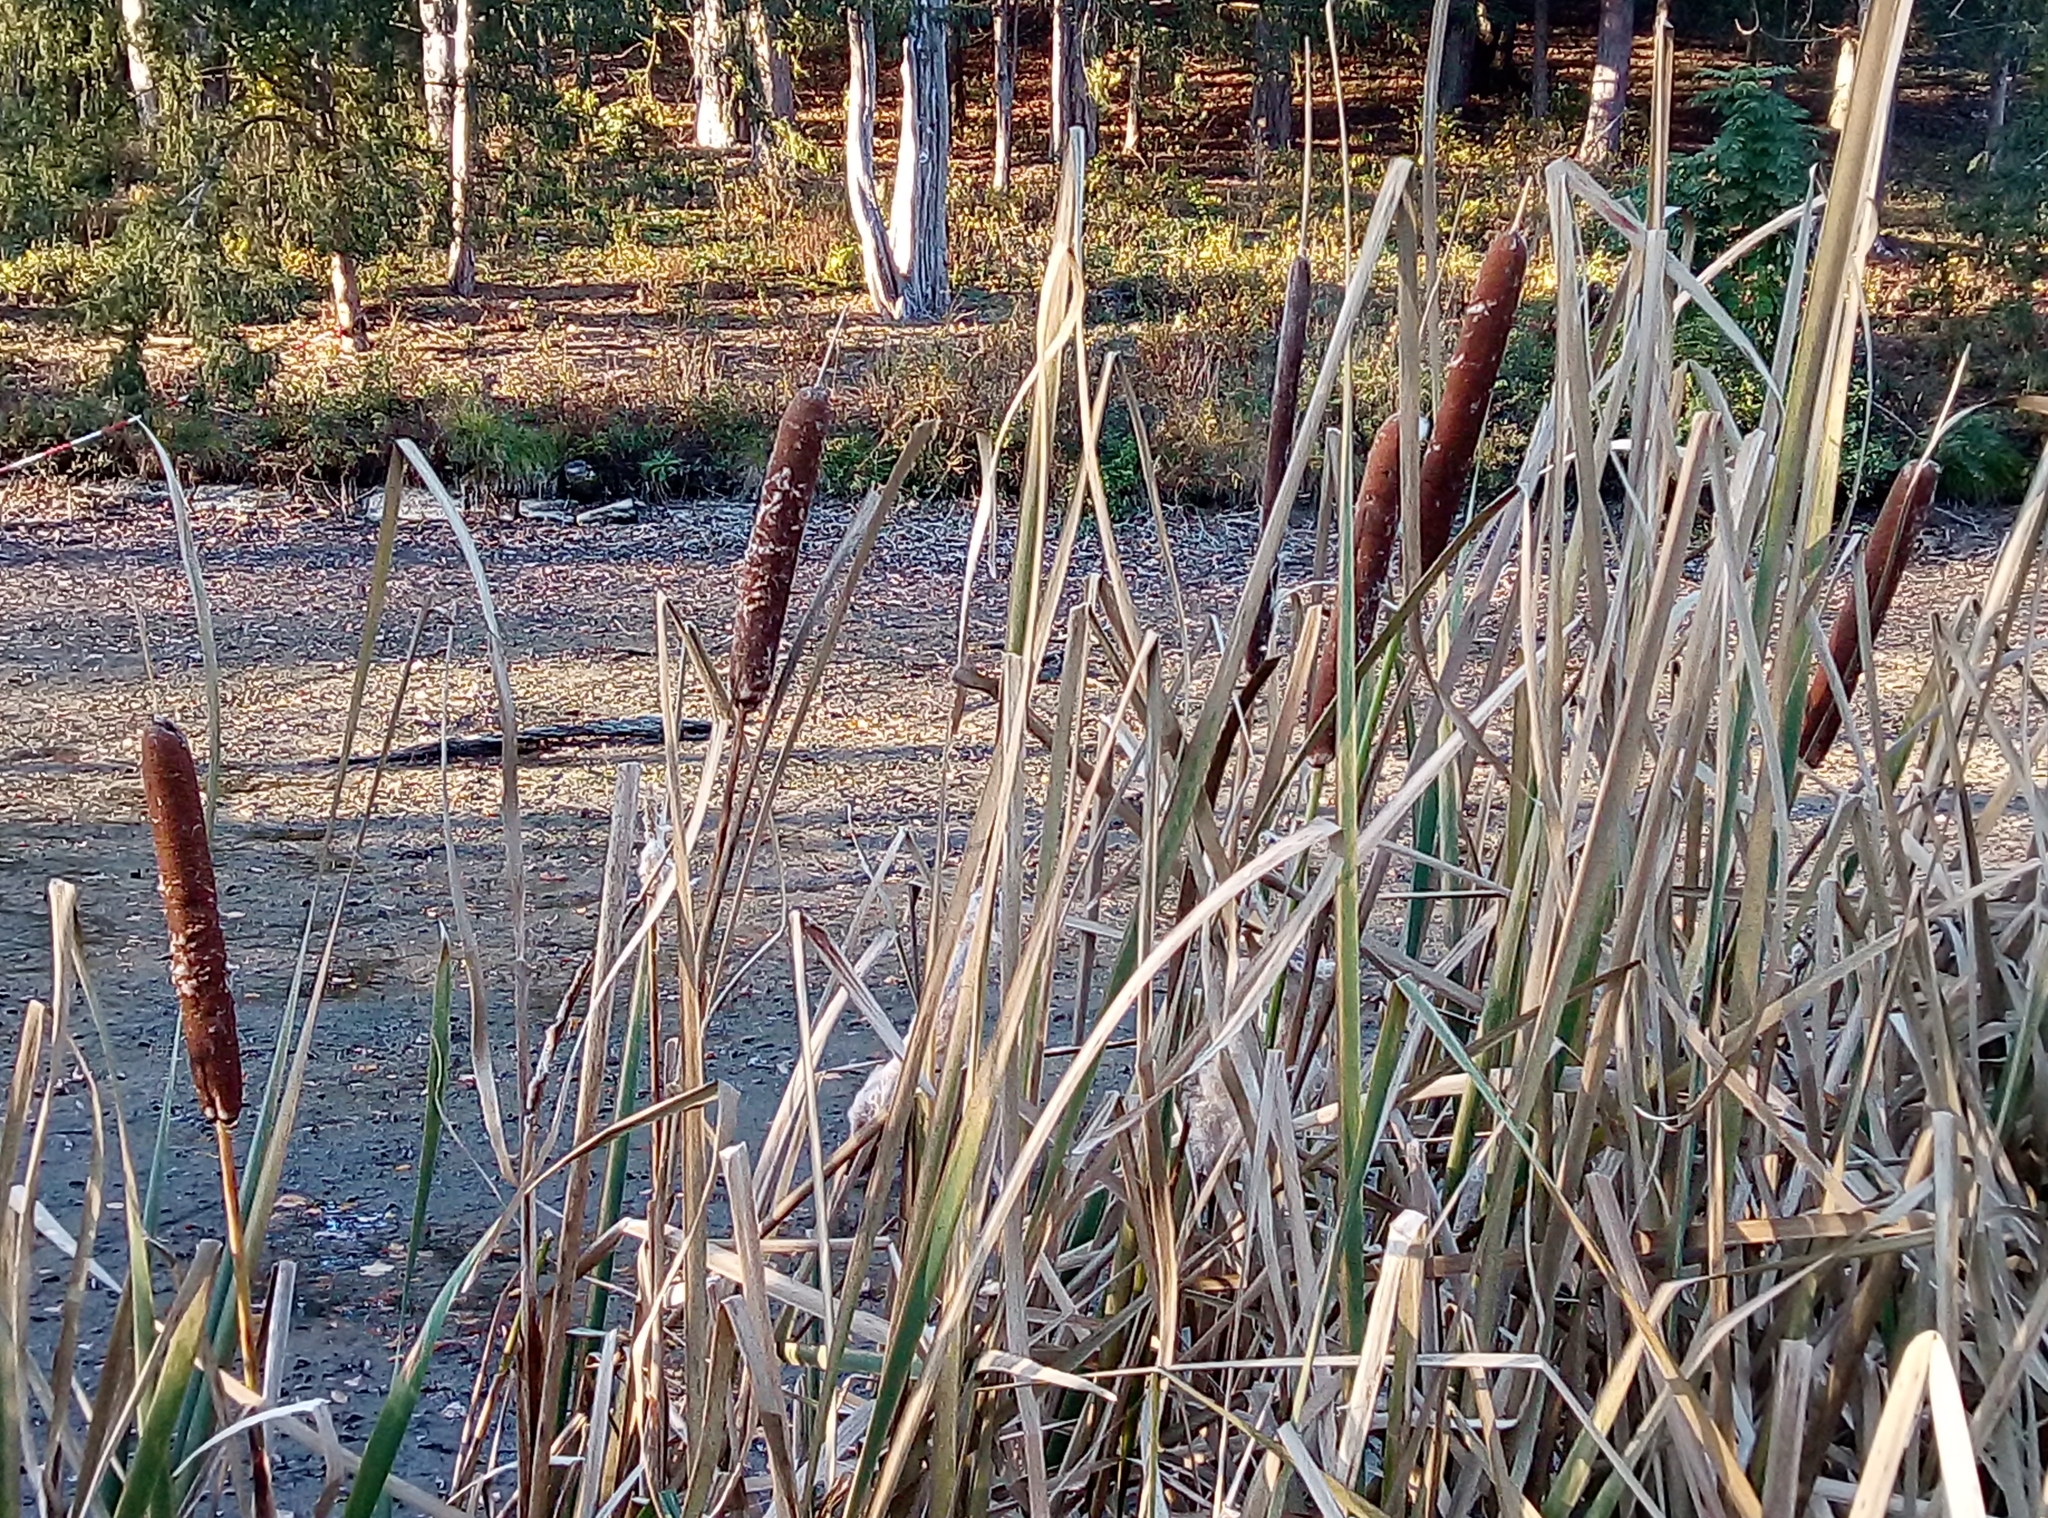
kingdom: Plantae
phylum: Tracheophyta
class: Liliopsida
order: Poales
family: Typhaceae
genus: Typha
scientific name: Typha latifolia
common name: Broadleaf cattail
